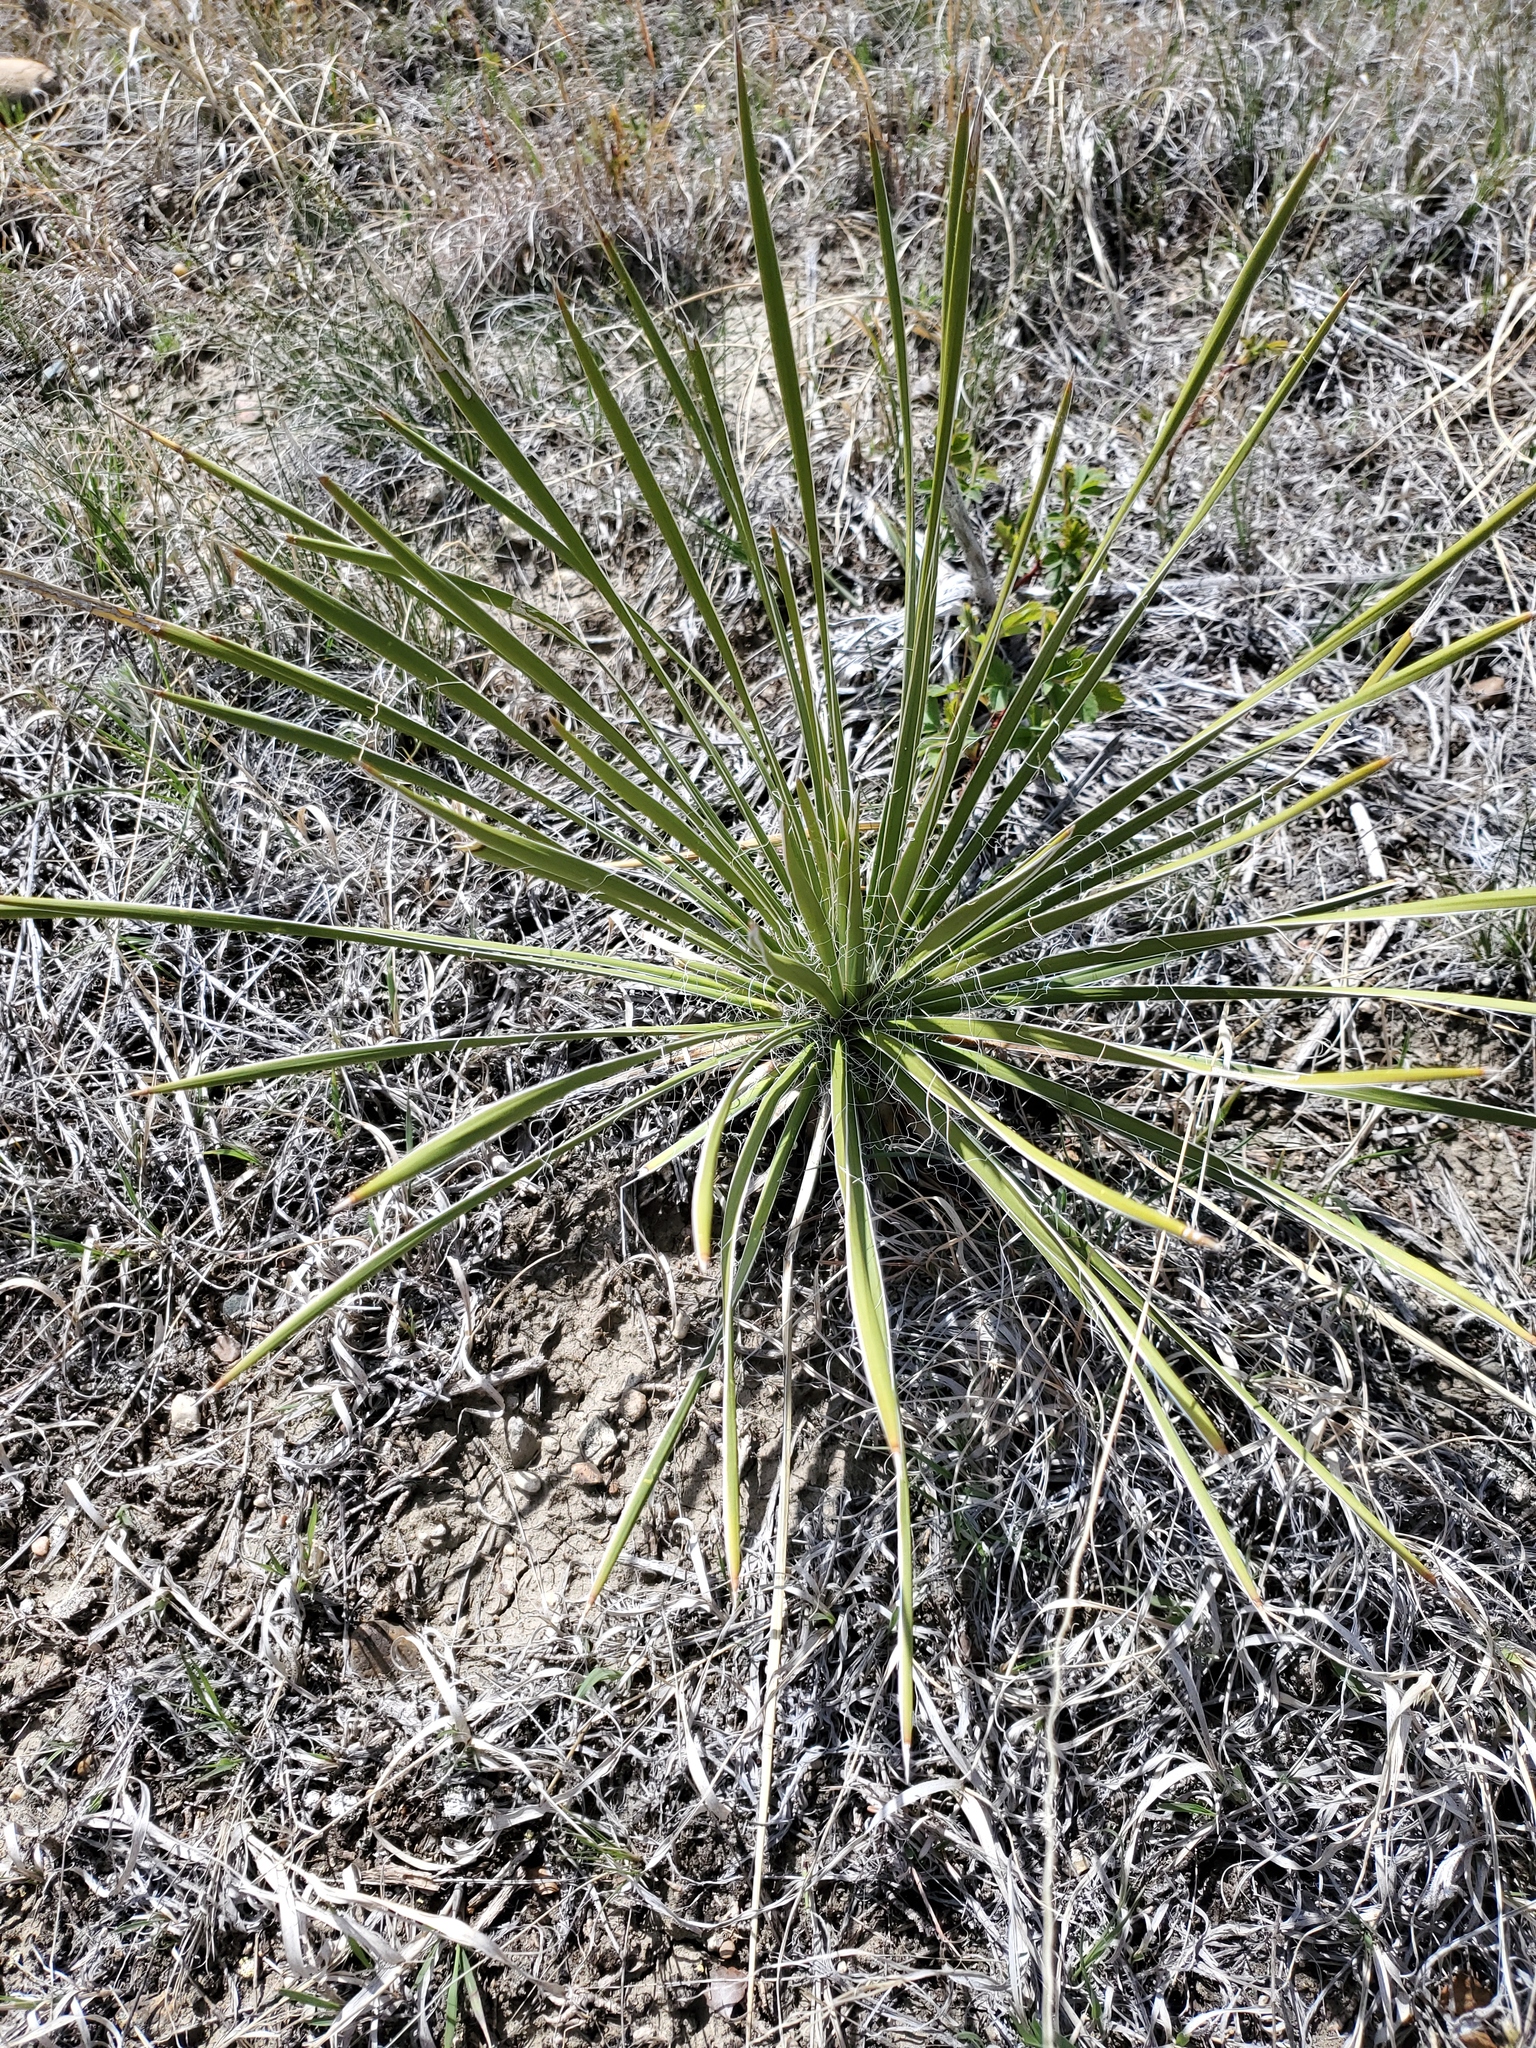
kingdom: Plantae
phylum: Tracheophyta
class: Liliopsida
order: Asparagales
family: Asparagaceae
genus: Yucca
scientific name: Yucca glauca
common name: Great plains yucca
